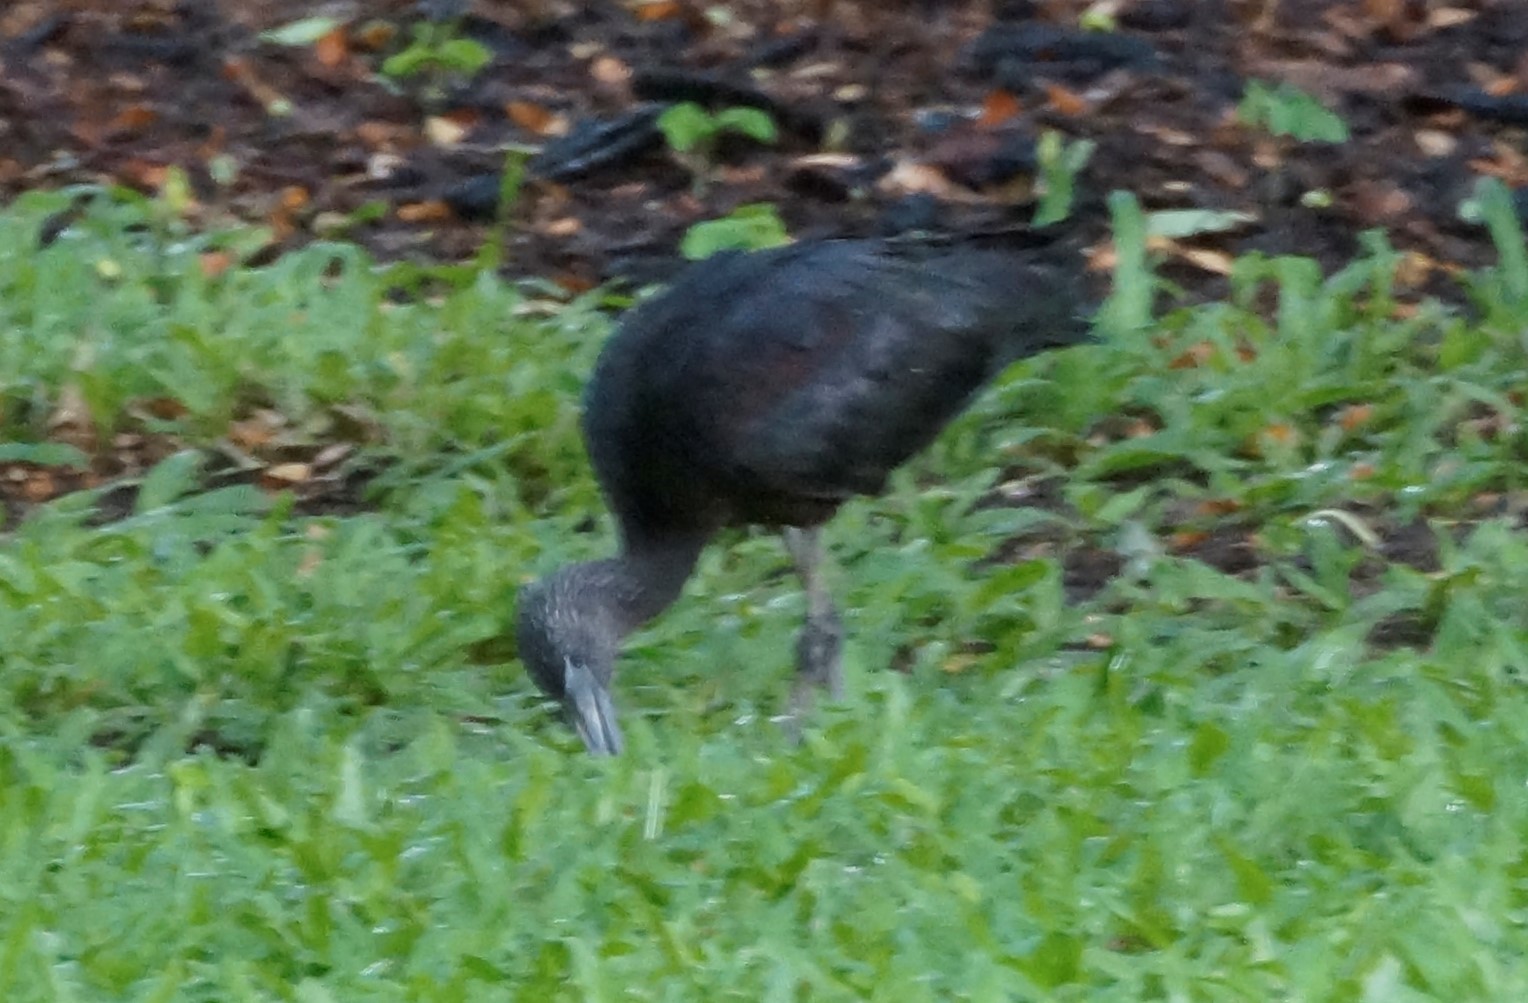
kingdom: Animalia
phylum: Chordata
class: Aves
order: Pelecaniformes
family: Threskiornithidae
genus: Plegadis
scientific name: Plegadis falcinellus
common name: Glossy ibis
